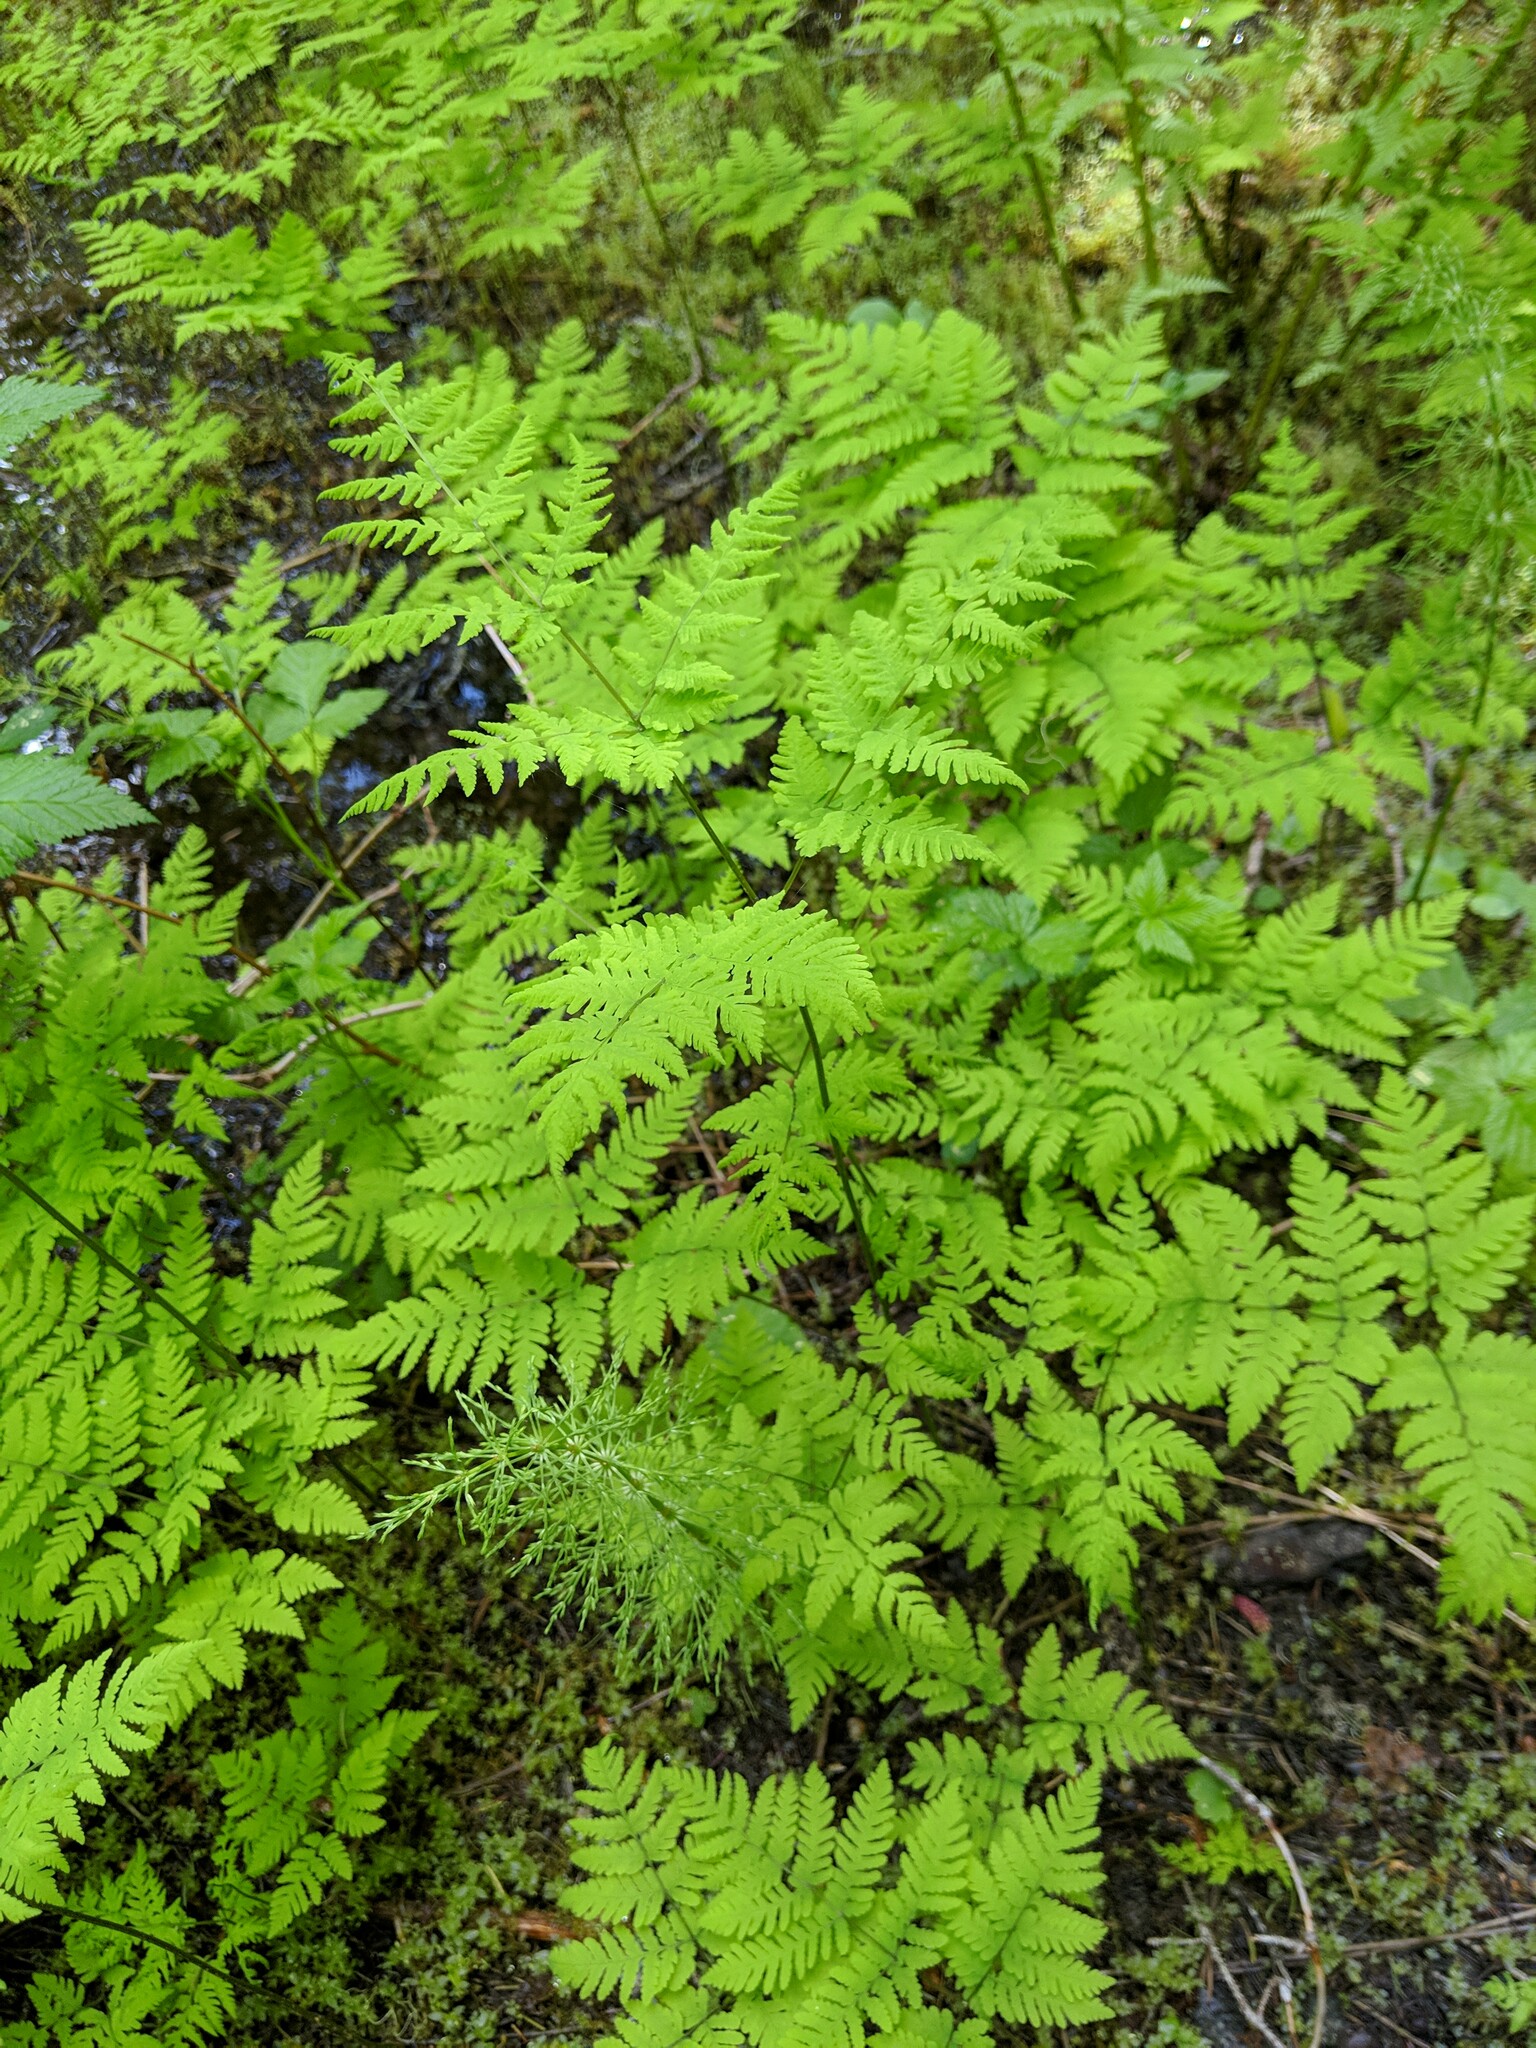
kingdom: Plantae
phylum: Tracheophyta
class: Polypodiopsida
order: Polypodiales
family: Cystopteridaceae
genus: Gymnocarpium
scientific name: Gymnocarpium disjunctum
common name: Western oak fern
